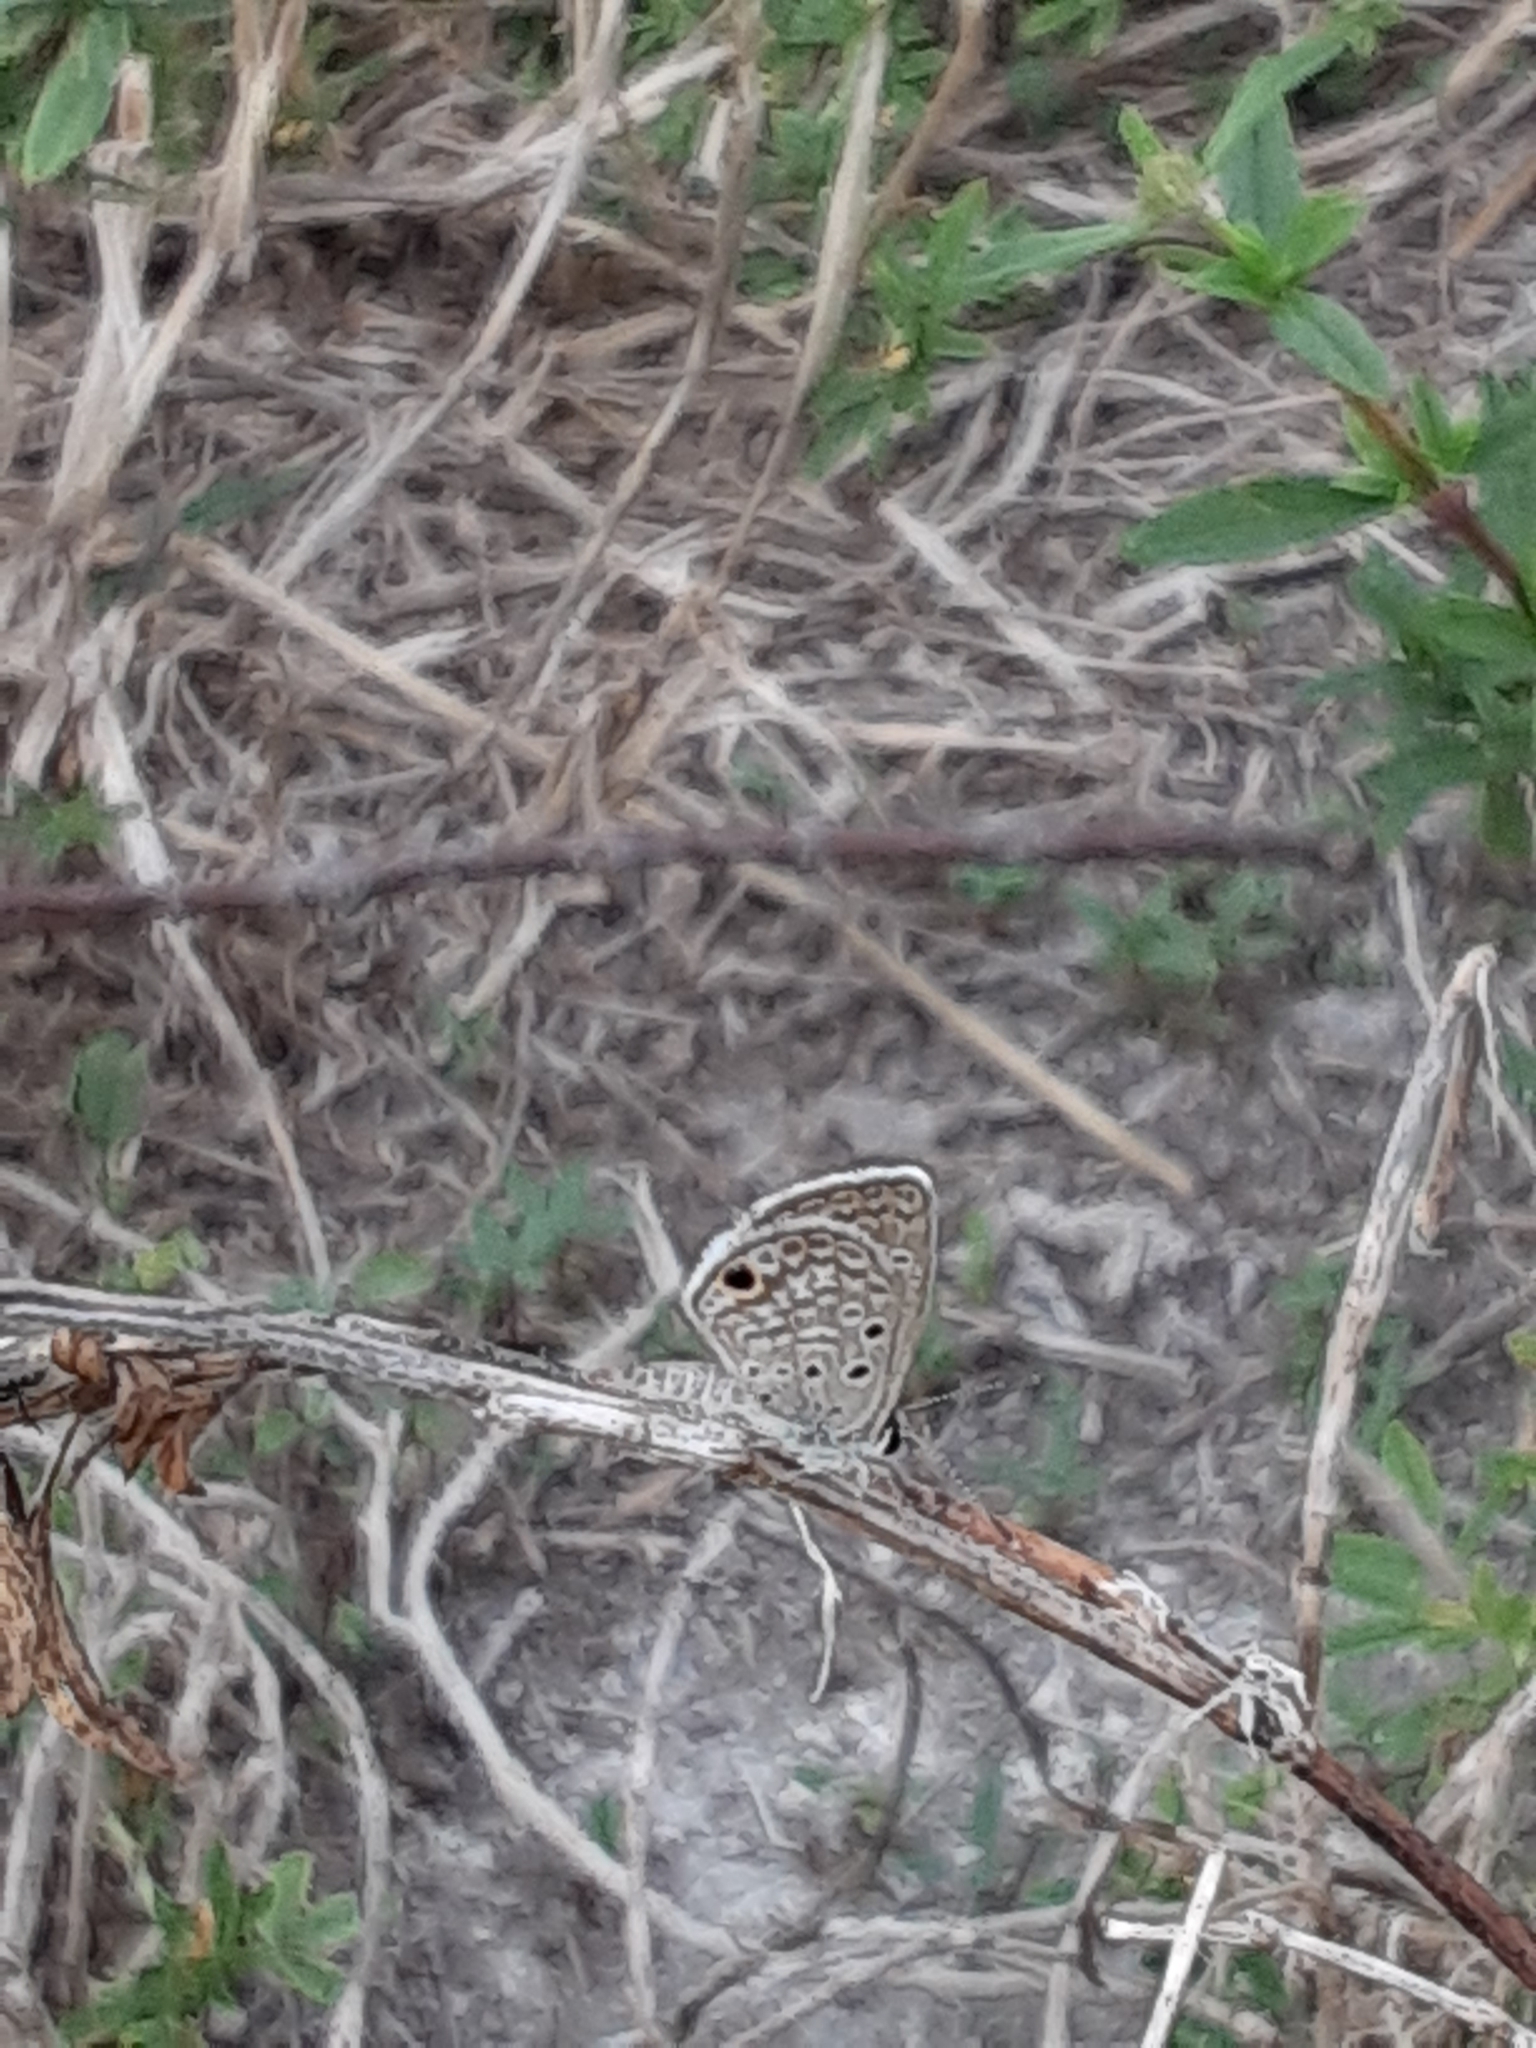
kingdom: Animalia
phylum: Arthropoda
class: Insecta
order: Lepidoptera
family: Lycaenidae
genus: Hemiargus
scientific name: Hemiargus ceraunus
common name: Ceraunus blue
